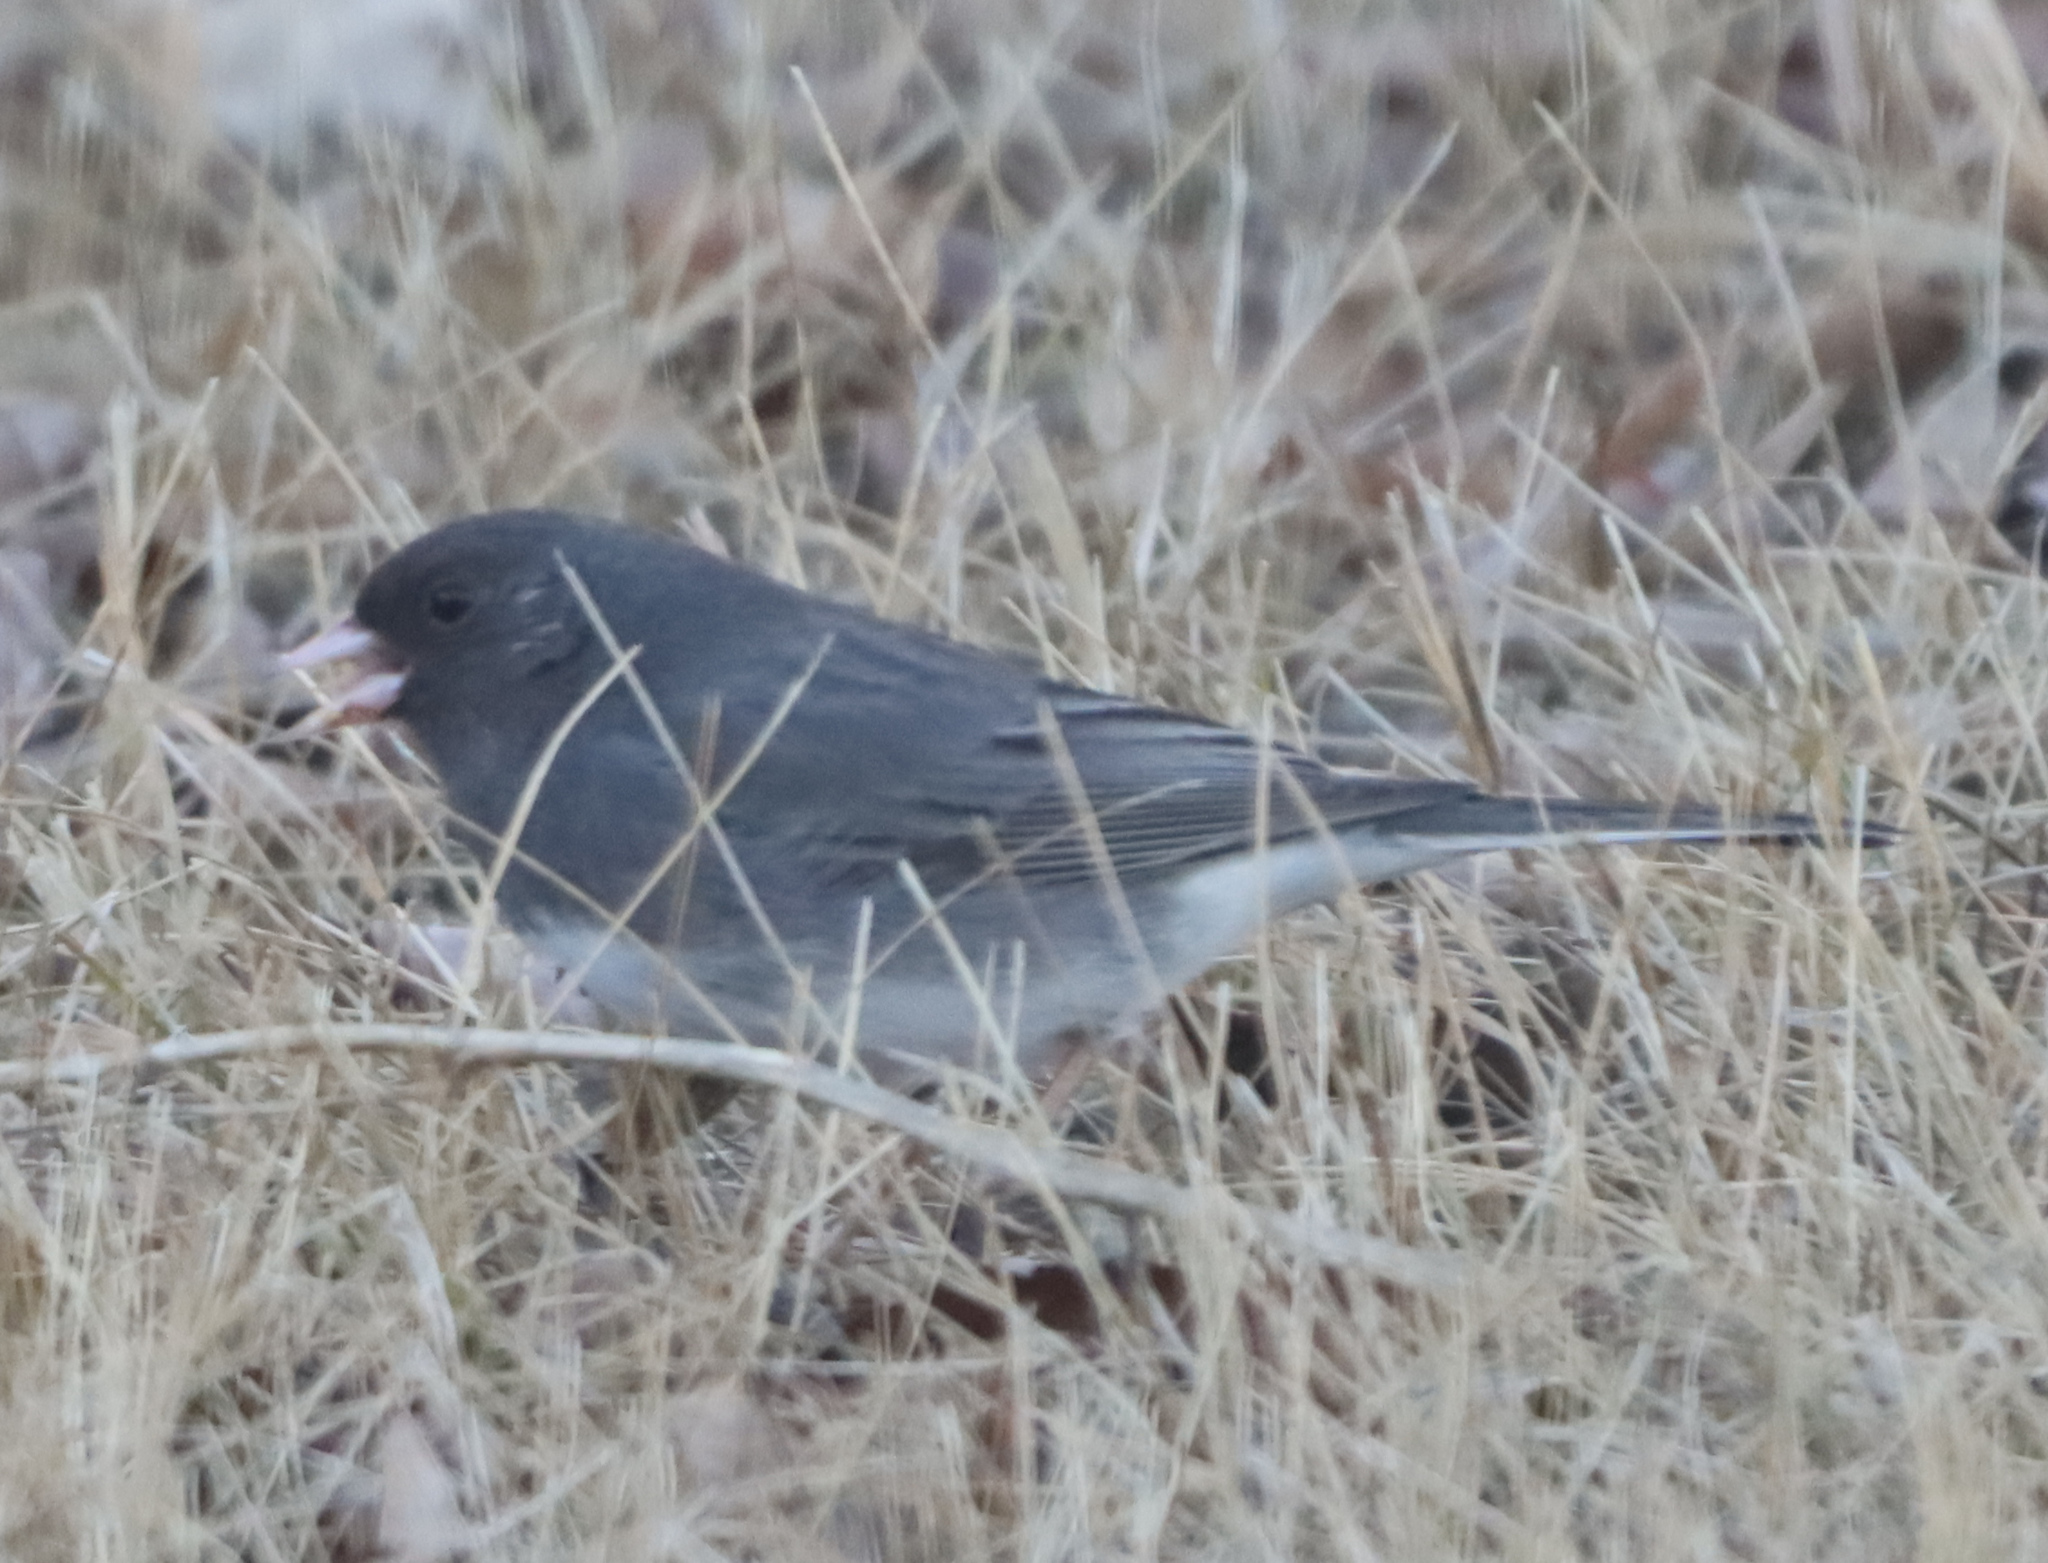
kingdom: Animalia
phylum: Chordata
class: Aves
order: Passeriformes
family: Passerellidae
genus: Junco
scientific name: Junco hyemalis
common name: Dark-eyed junco
